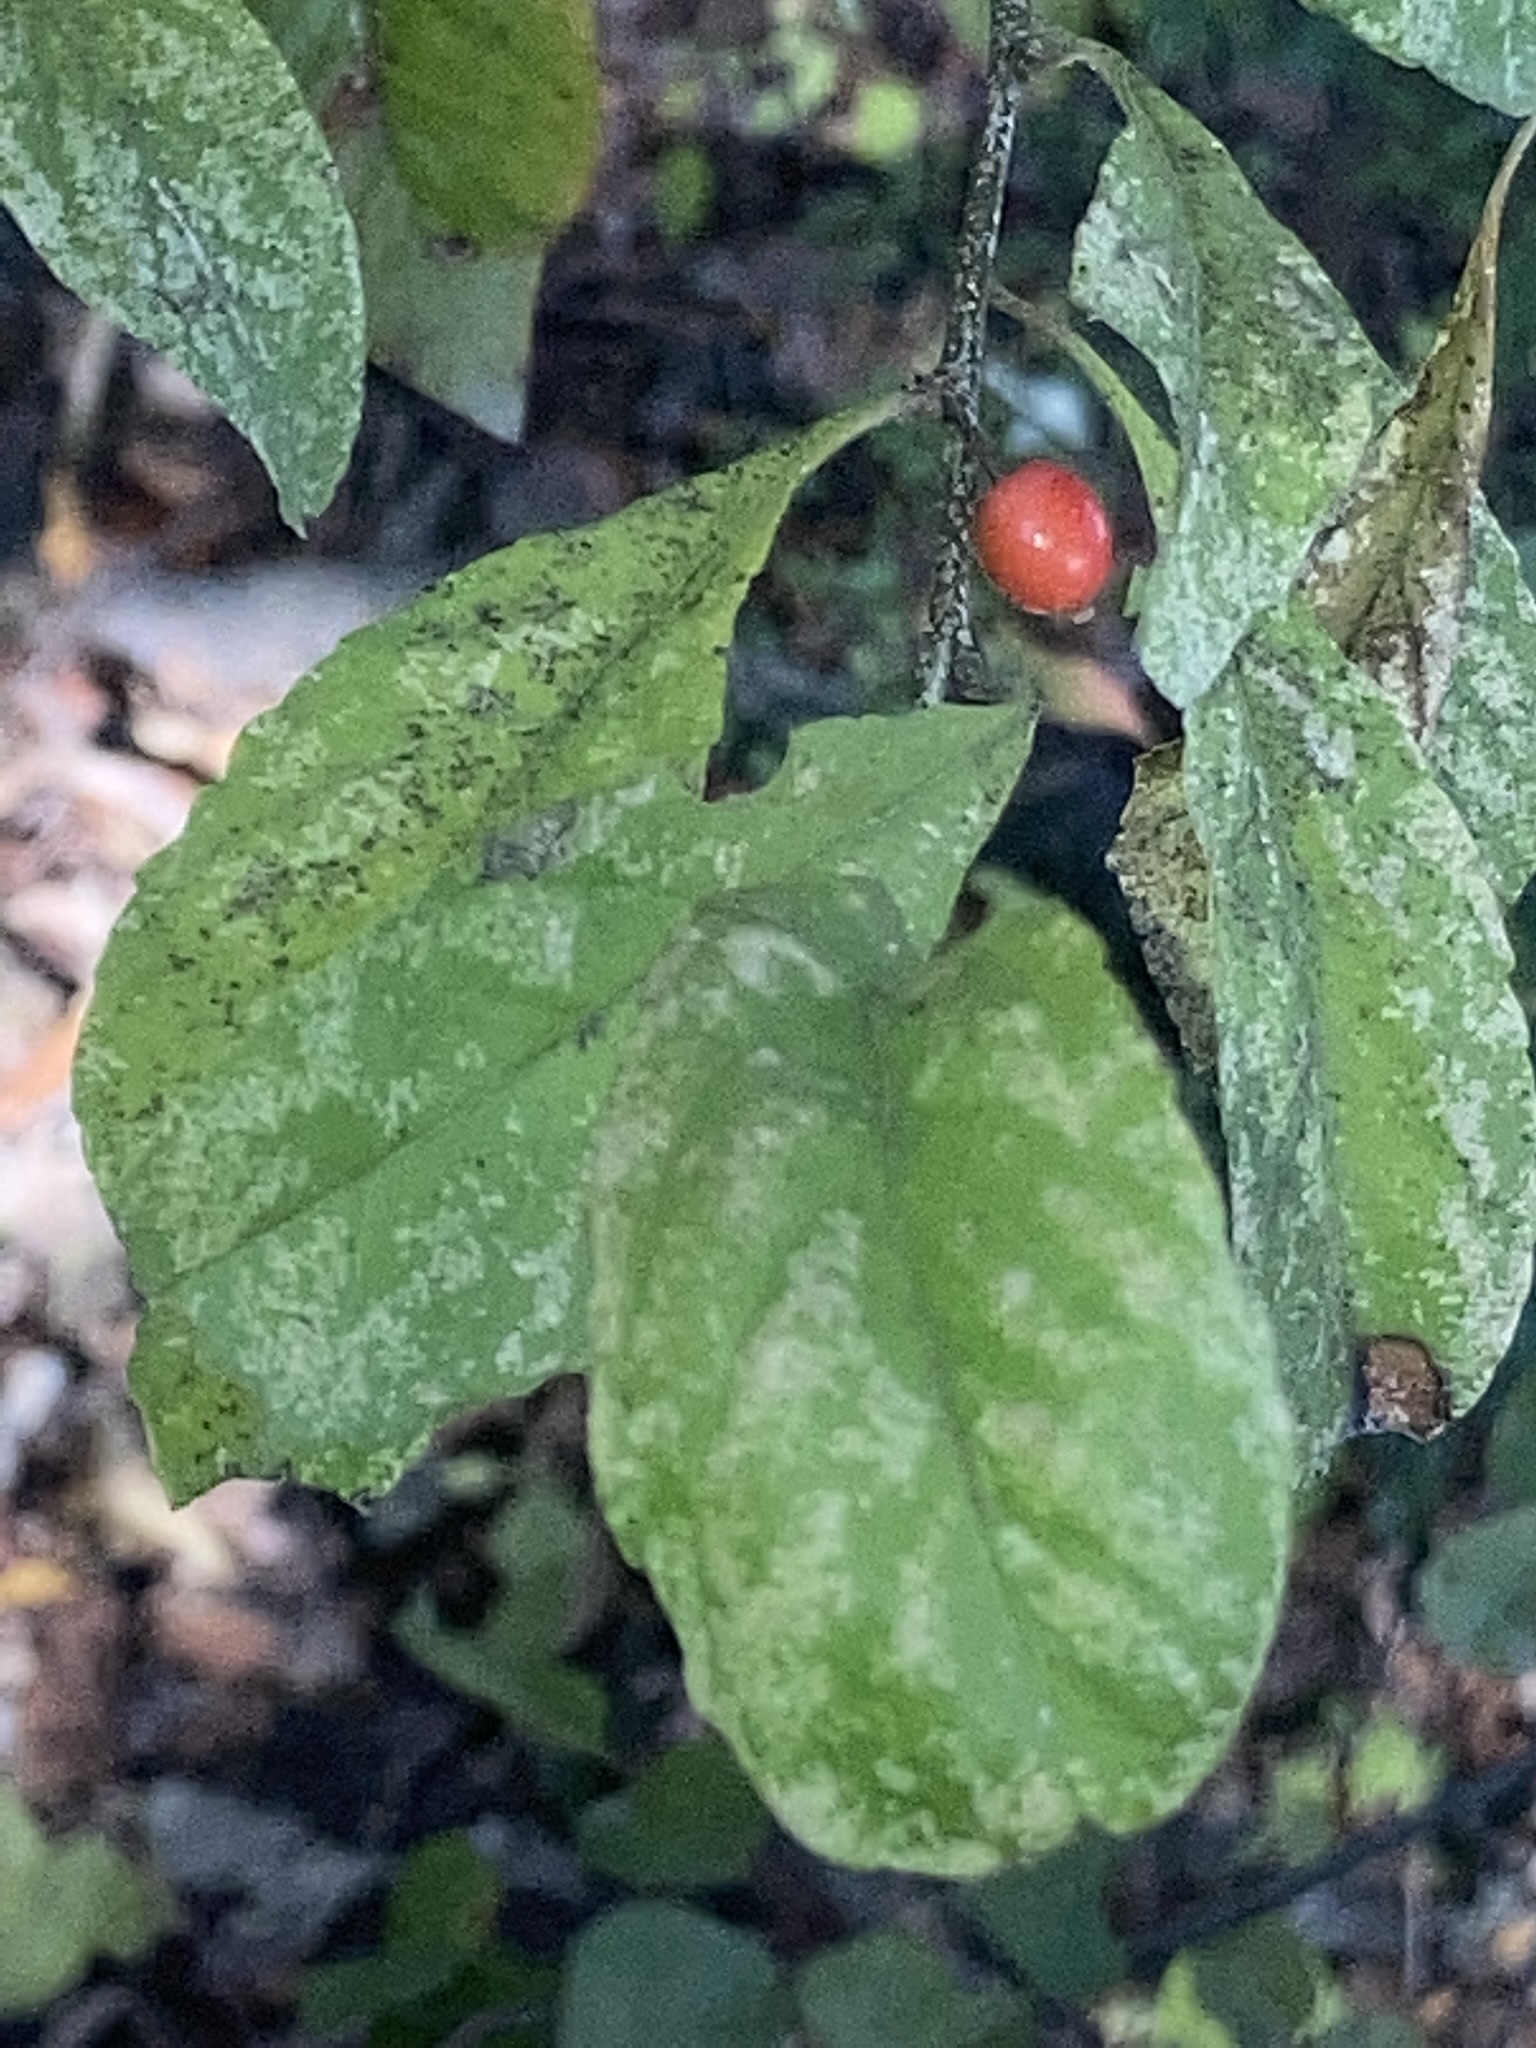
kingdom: Plantae
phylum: Tracheophyta
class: Magnoliopsida
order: Aquifoliales
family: Aquifoliaceae
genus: Ilex
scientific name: Ilex decidua
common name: Possum-haw
